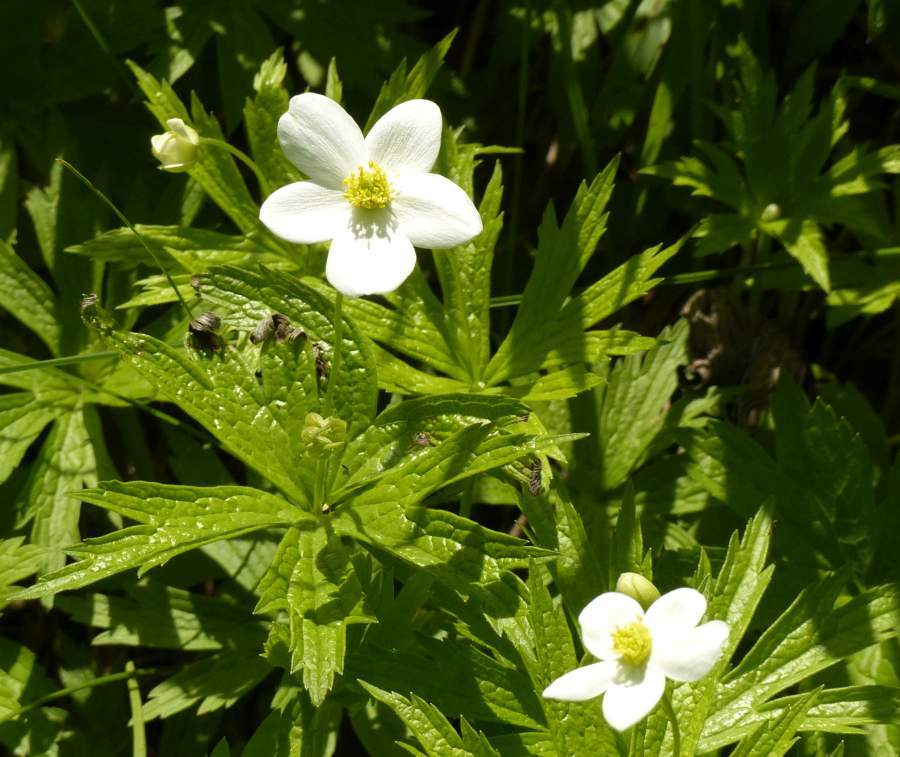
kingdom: Plantae
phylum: Tracheophyta
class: Magnoliopsida
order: Ranunculales
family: Ranunculaceae
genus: Anemonastrum
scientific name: Anemonastrum canadense
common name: Canada anemone
